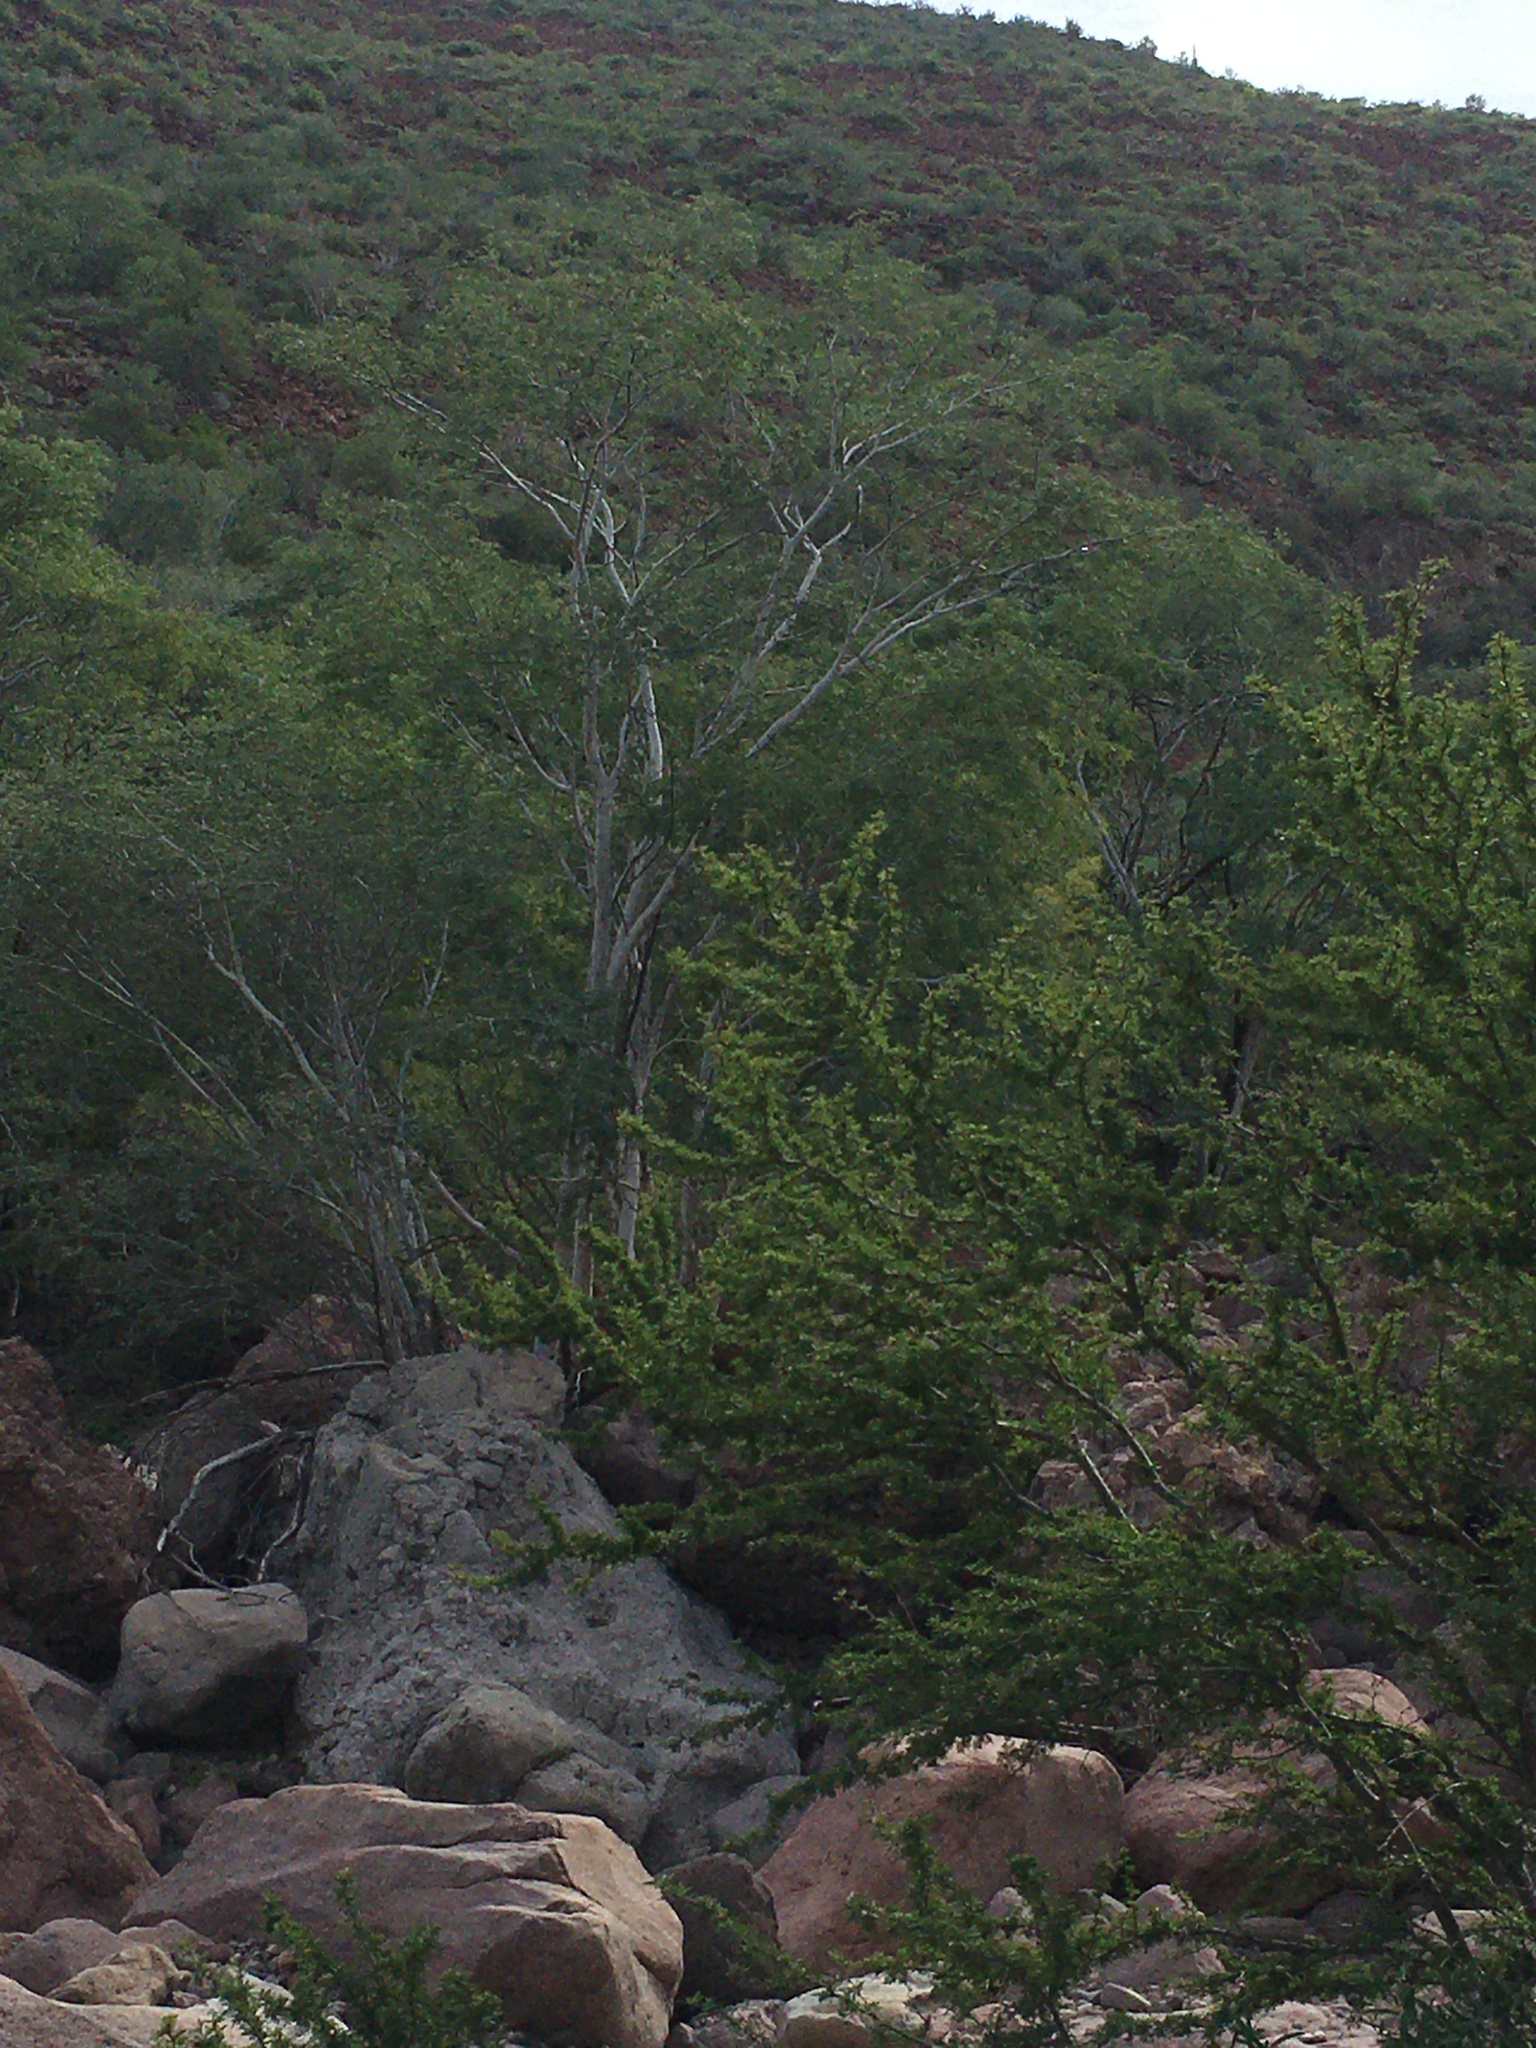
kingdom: Animalia
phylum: Chordata
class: Aves
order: Passeriformes
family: Cardinalidae
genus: Passerina
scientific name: Passerina amoena
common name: Lazuli bunting
